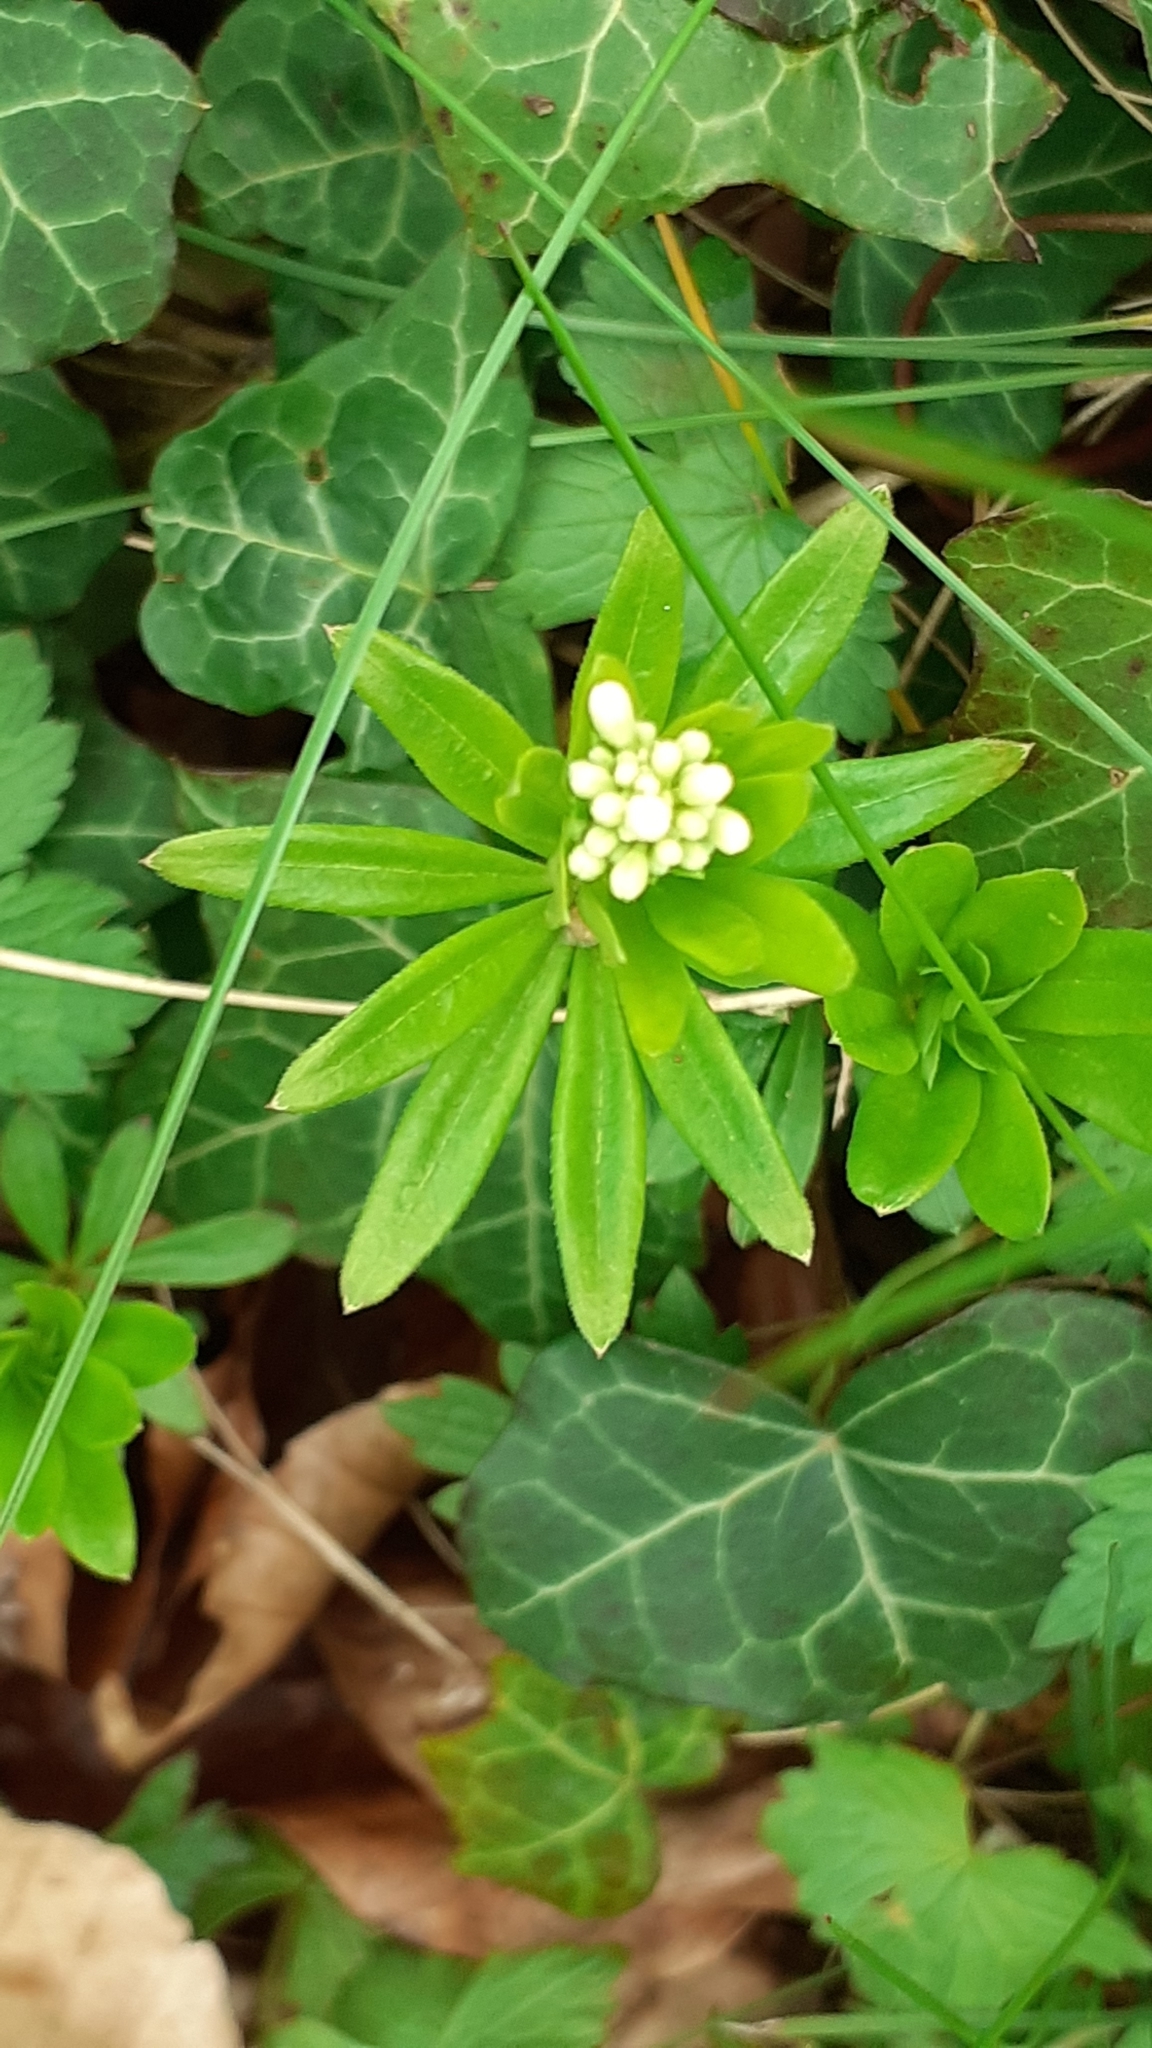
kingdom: Plantae
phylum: Tracheophyta
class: Magnoliopsida
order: Gentianales
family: Rubiaceae
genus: Galium
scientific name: Galium odoratum
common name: Sweet woodruff
